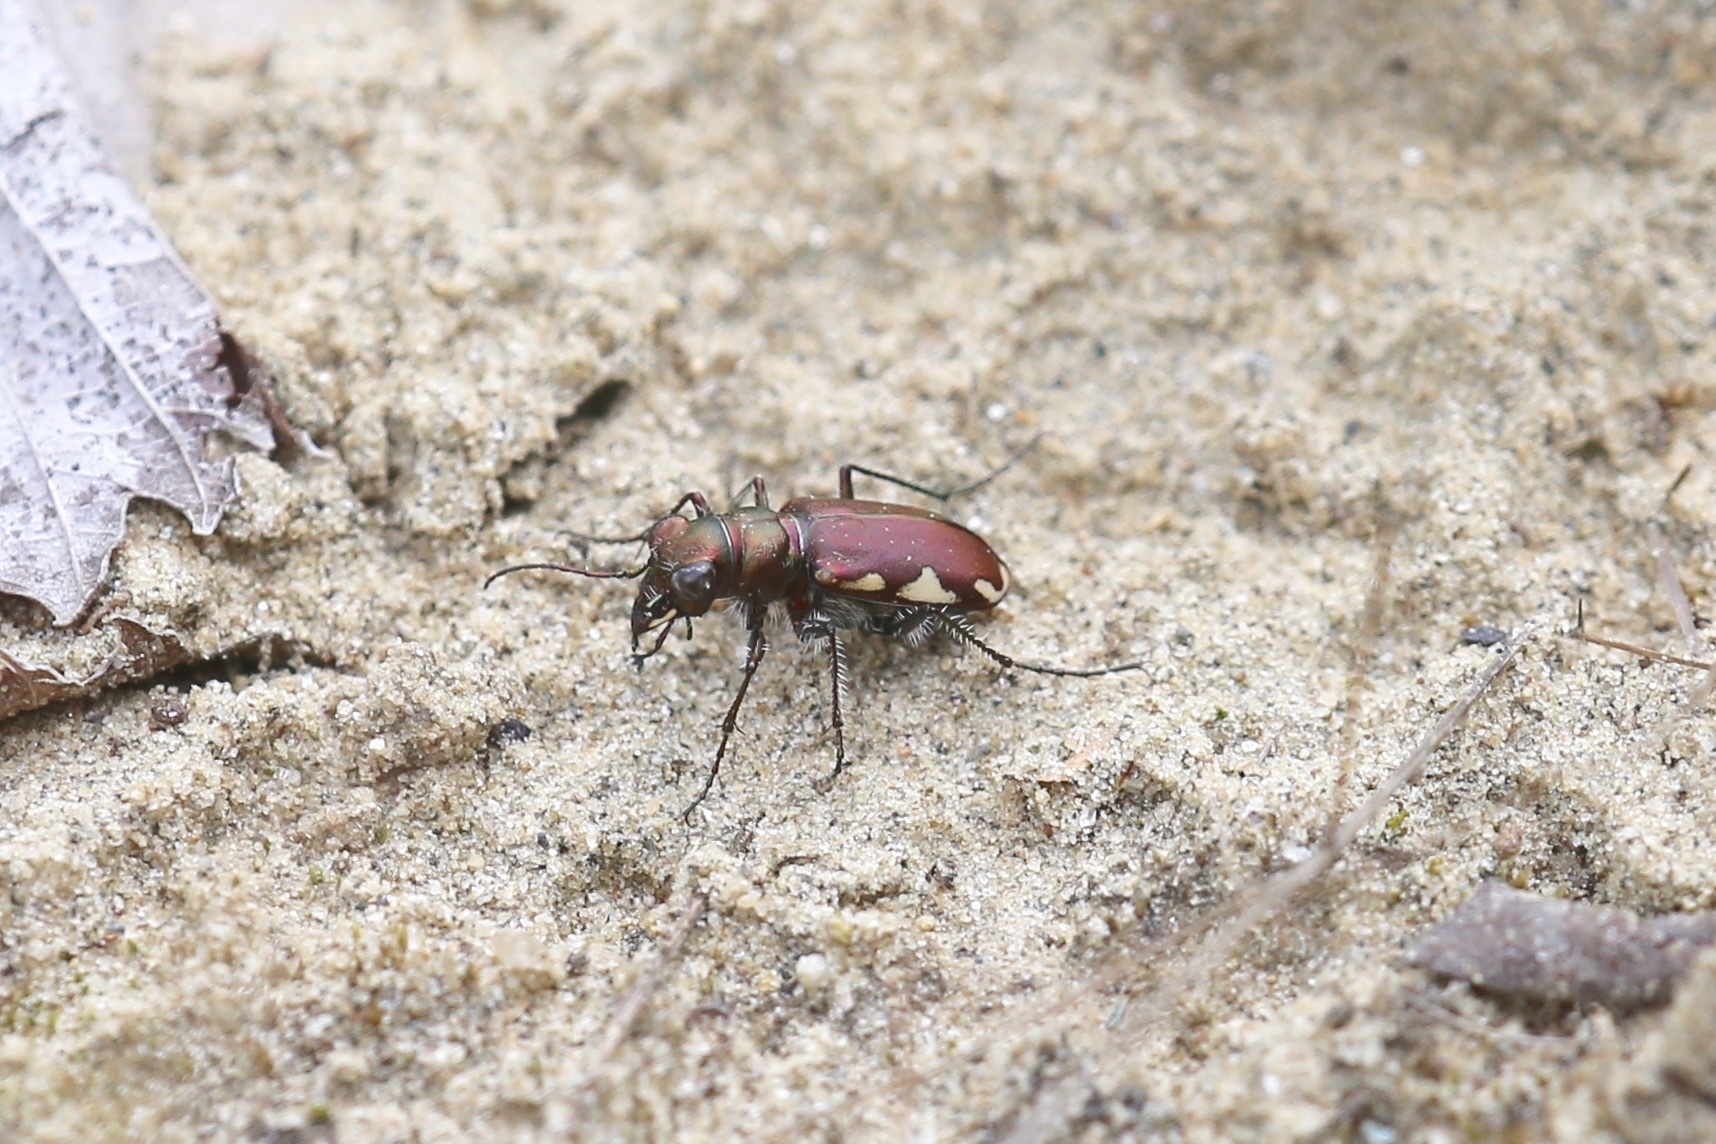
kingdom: Animalia
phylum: Arthropoda
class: Insecta
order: Coleoptera
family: Carabidae
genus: Cicindela
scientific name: Cicindela scutellaris
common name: Festive tiger beetle
